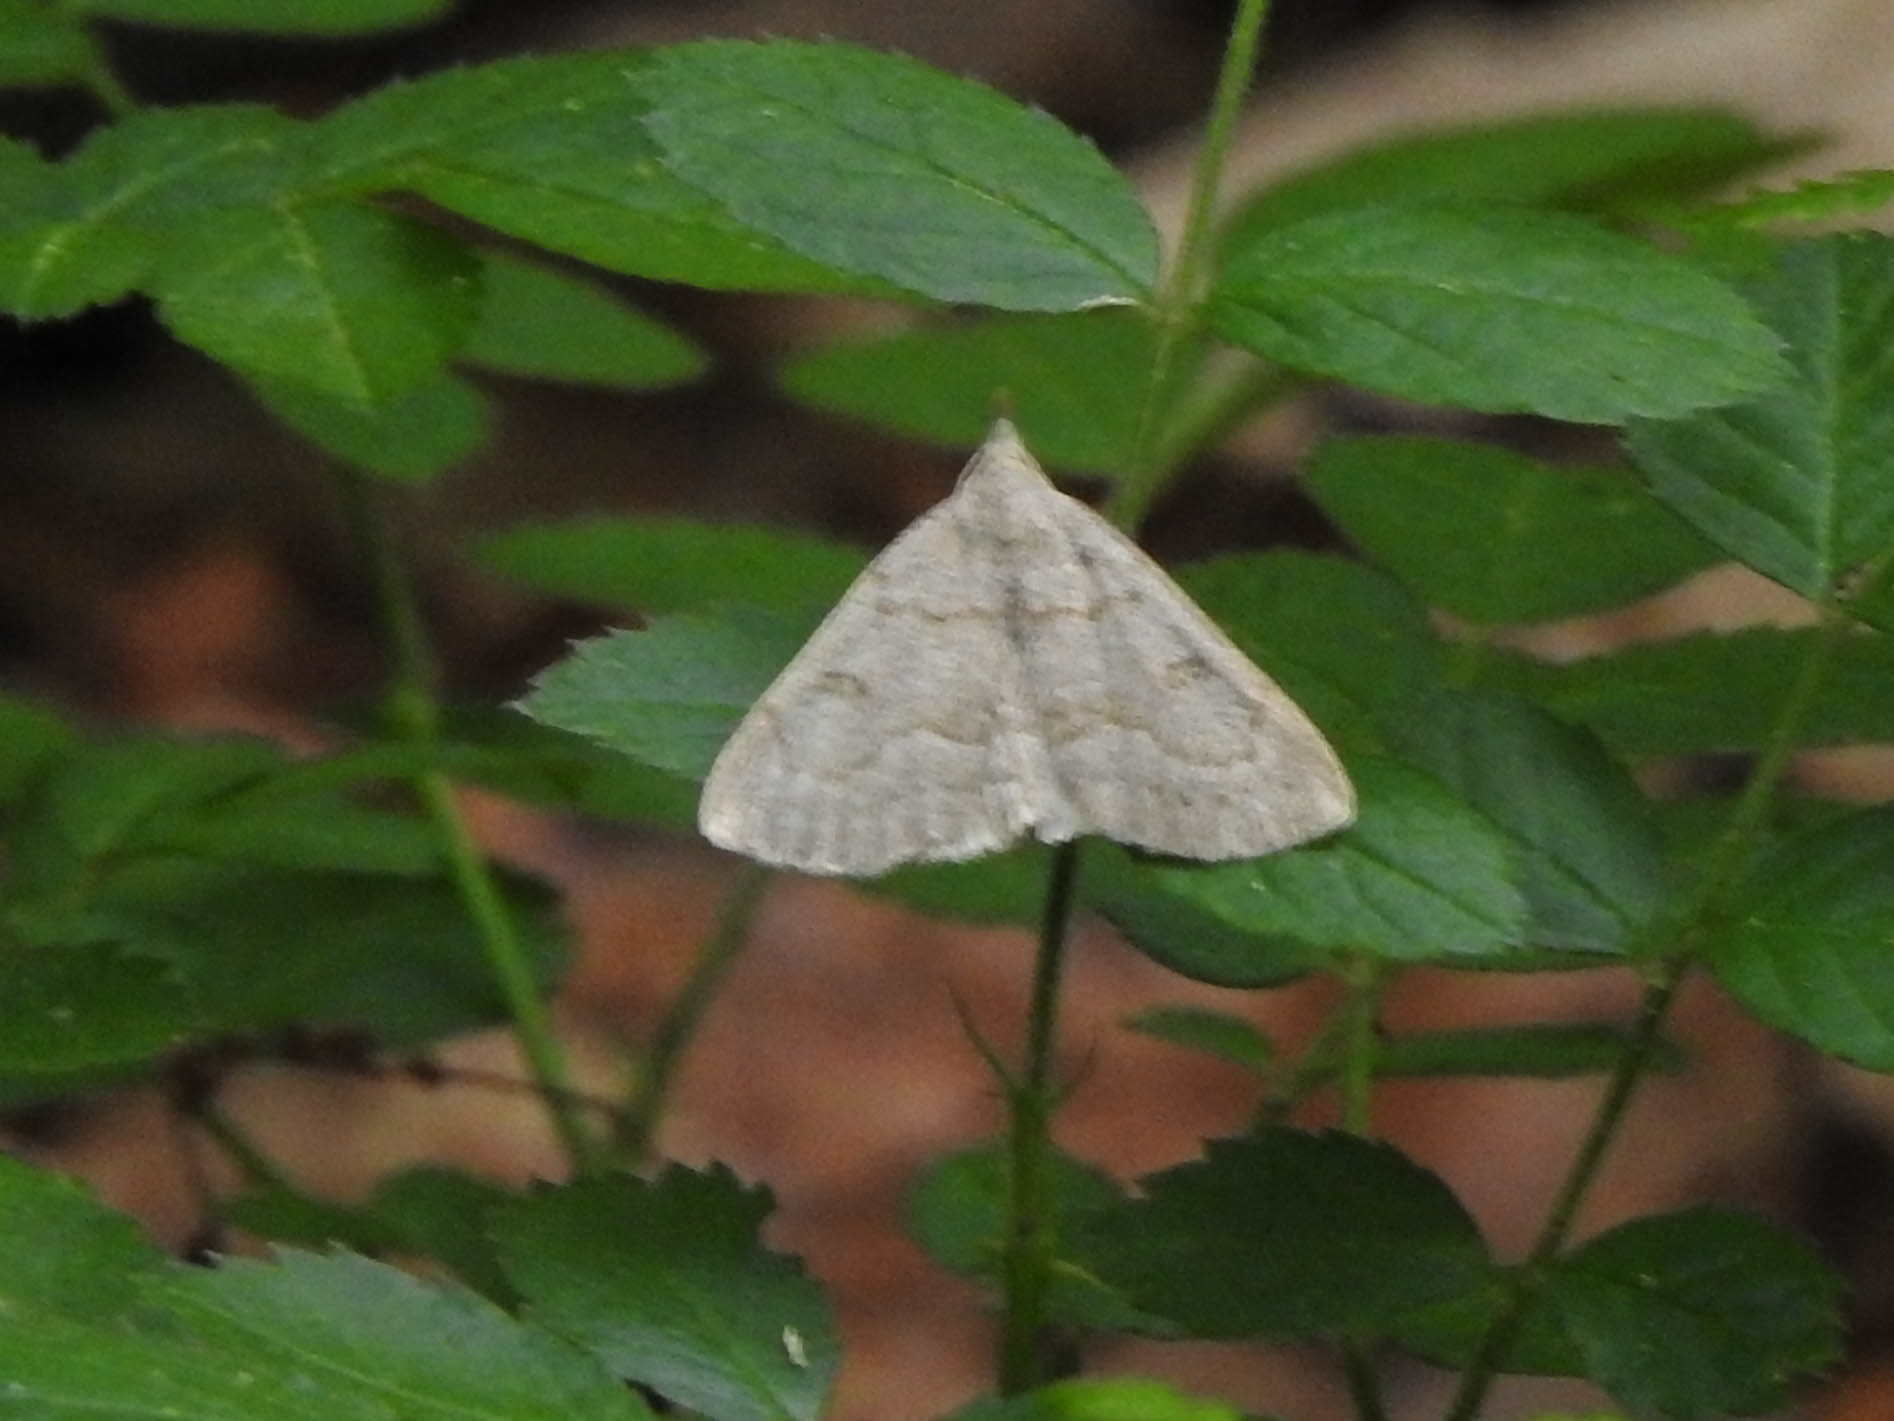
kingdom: Animalia
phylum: Arthropoda
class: Insecta
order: Lepidoptera
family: Erebidae
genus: Macrochilo
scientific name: Macrochilo morbidalis
